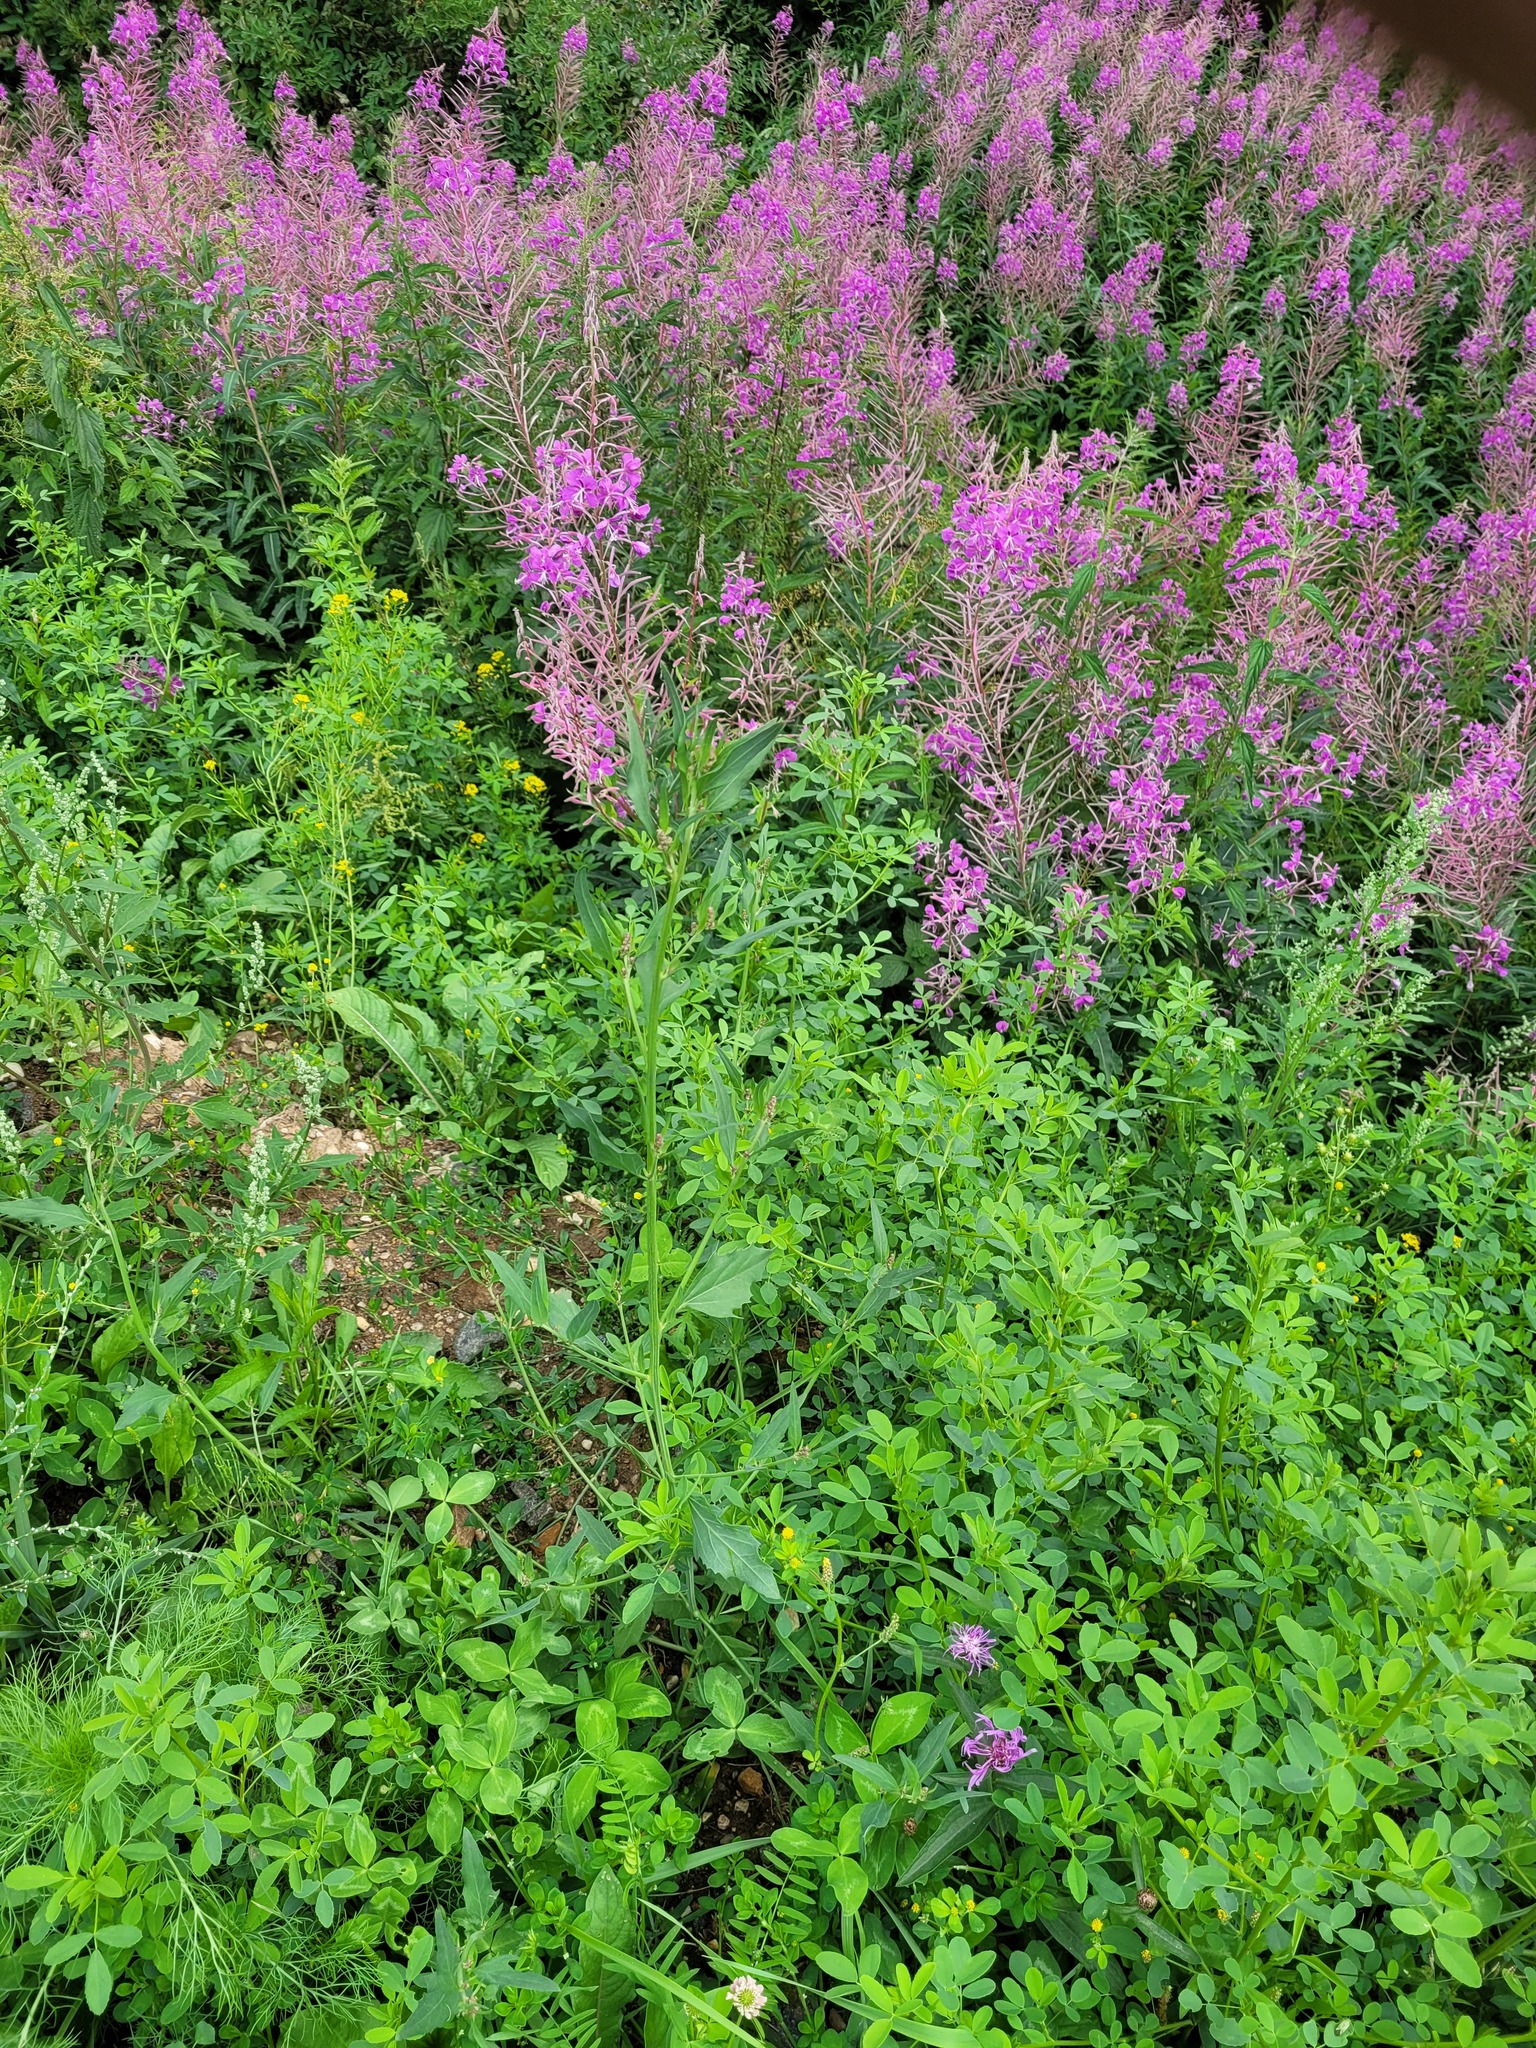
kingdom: Plantae
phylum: Tracheophyta
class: Magnoliopsida
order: Caryophyllales
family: Amaranthaceae
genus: Atriplex
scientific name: Atriplex patula
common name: Common orache
